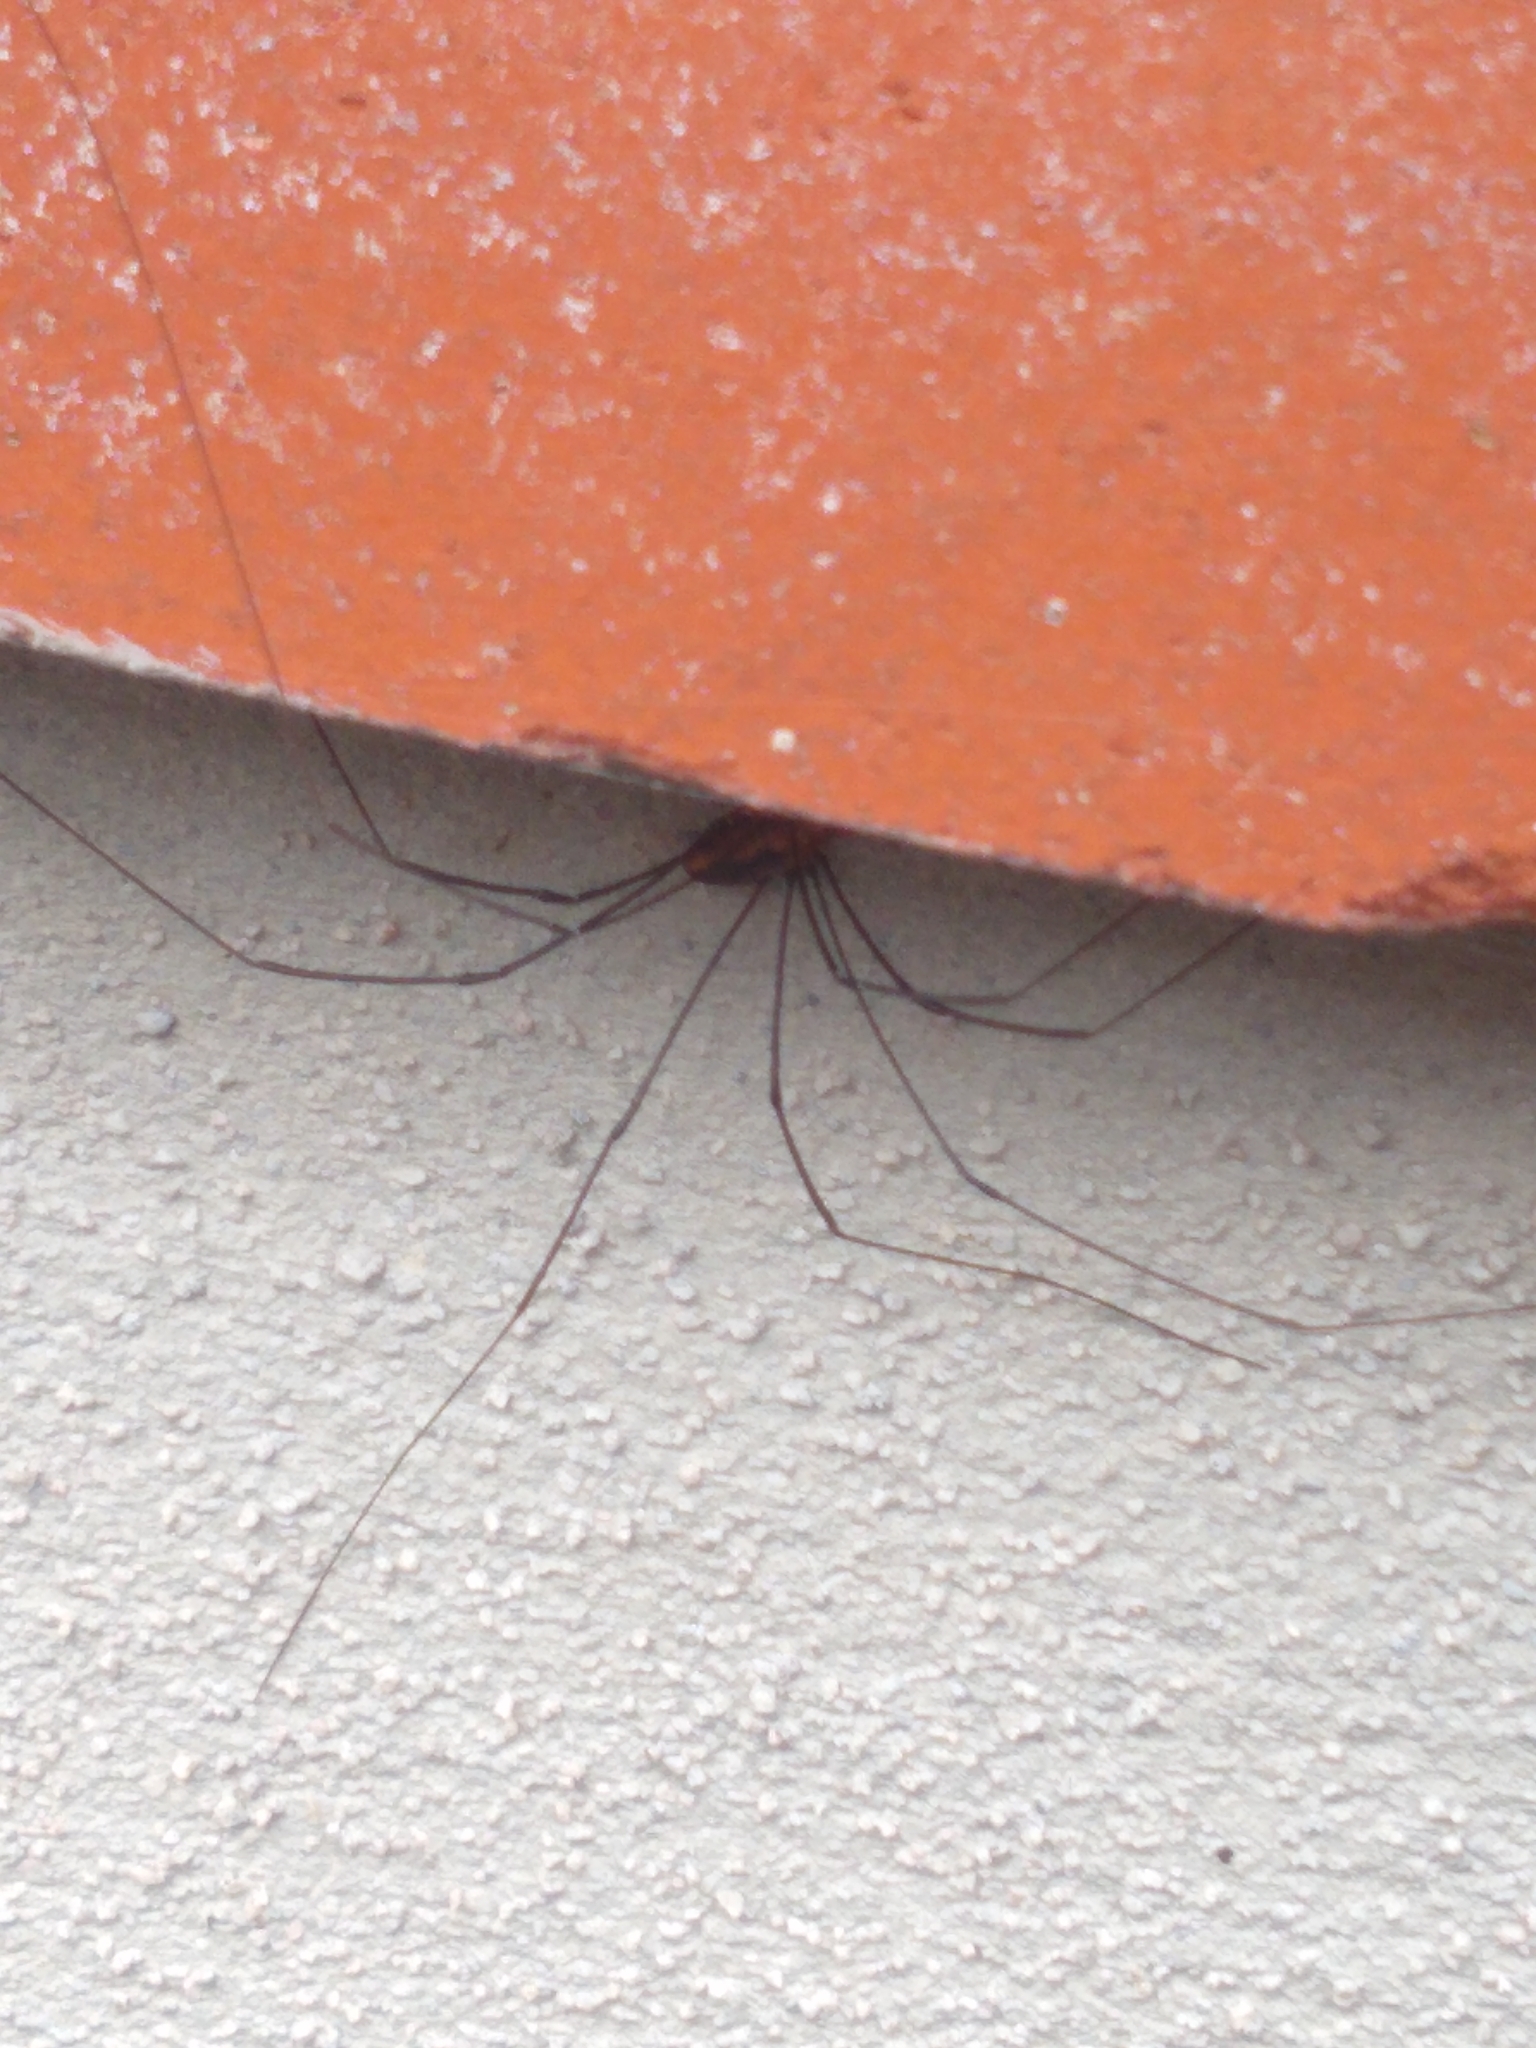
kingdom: Animalia
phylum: Arthropoda
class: Arachnida
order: Opiliones
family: Sclerosomatidae
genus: Leiobunum
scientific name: Leiobunum vittatum
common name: Eastern harvestman
